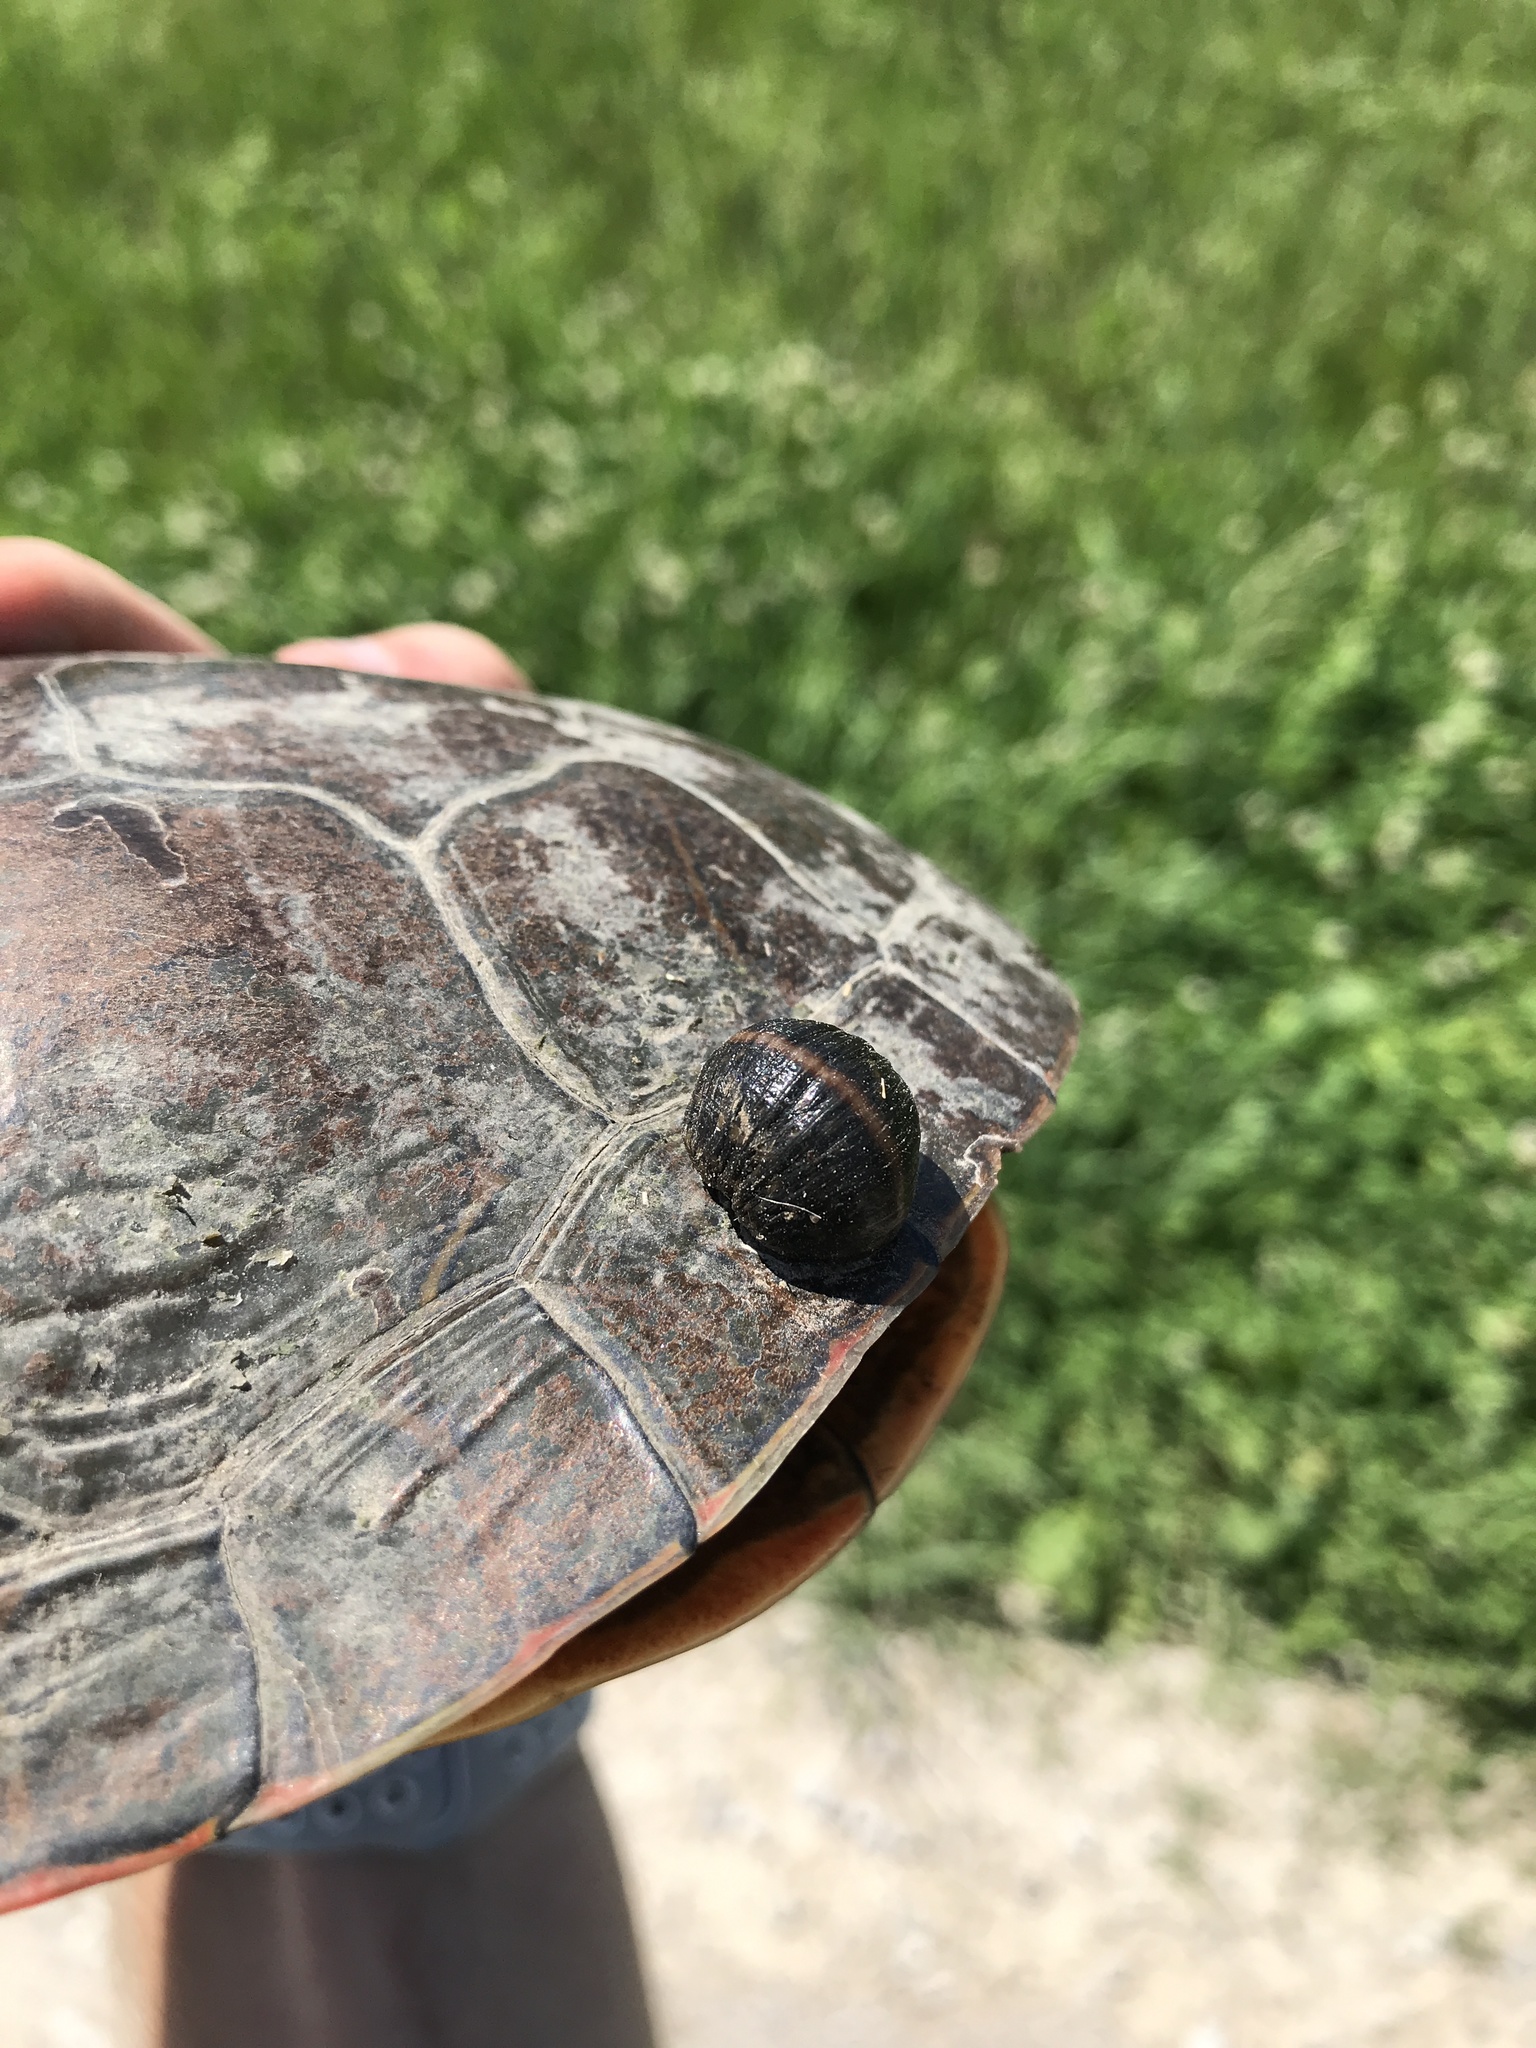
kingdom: Animalia
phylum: Annelida
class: Clitellata
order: Rhynchobdellida
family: Glossiphoniidae
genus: Placobdella
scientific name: Placobdella parasitica
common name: Smooth turtle leech
